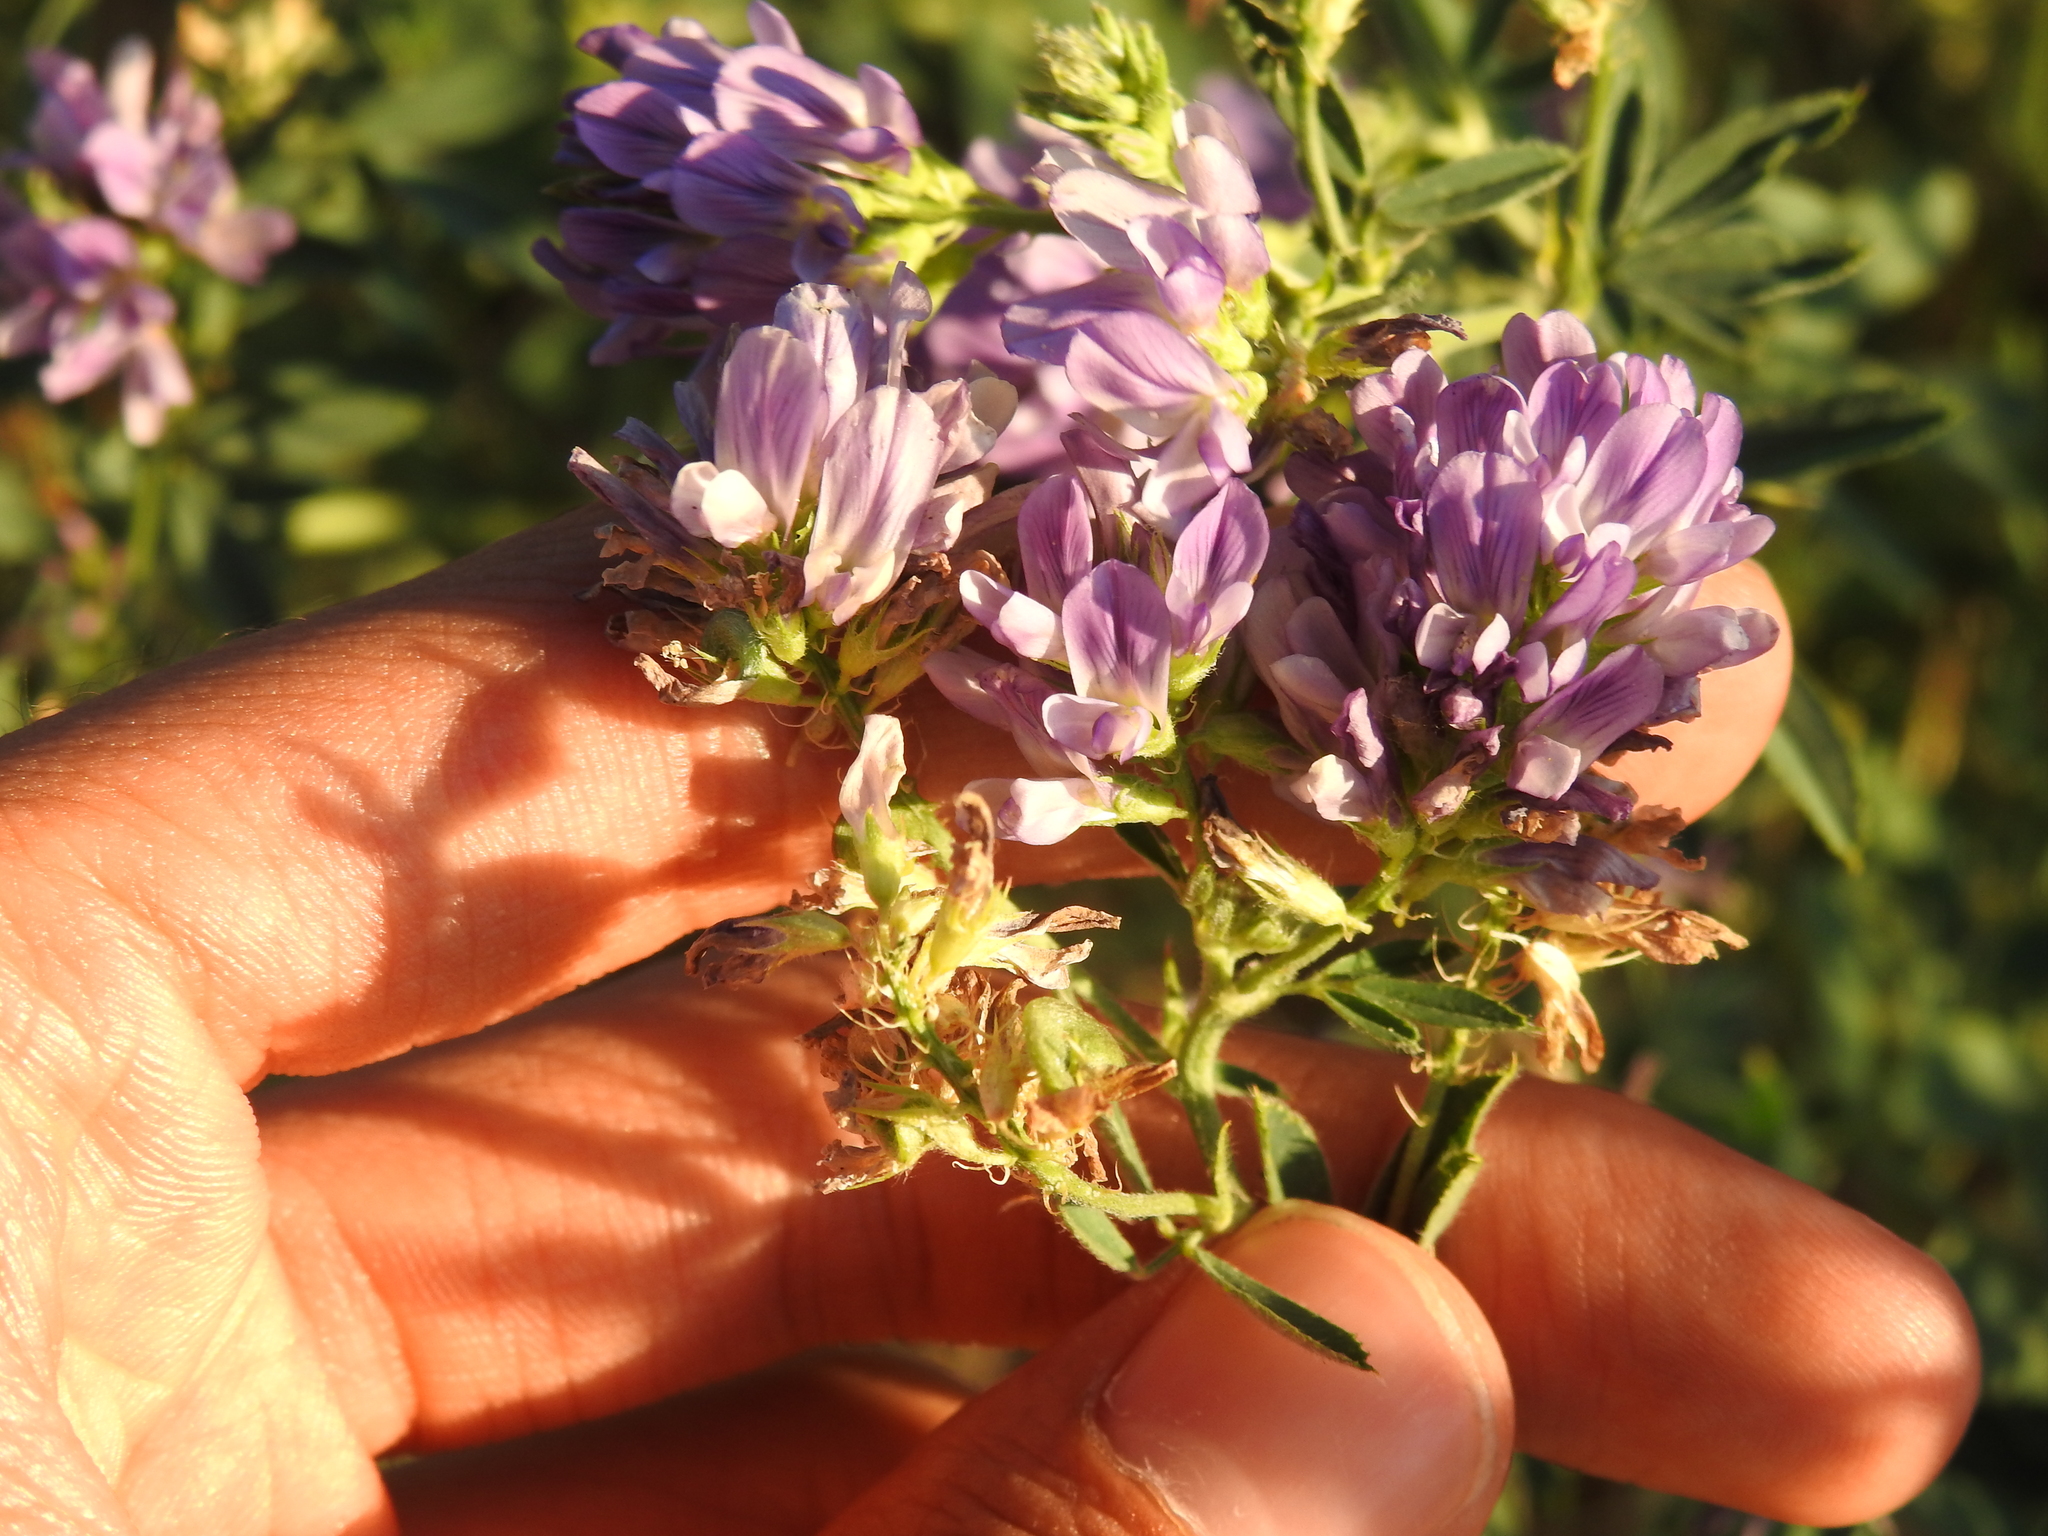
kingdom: Plantae
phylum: Tracheophyta
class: Magnoliopsida
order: Fabales
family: Fabaceae
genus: Medicago
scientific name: Medicago sativa
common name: Alfalfa
